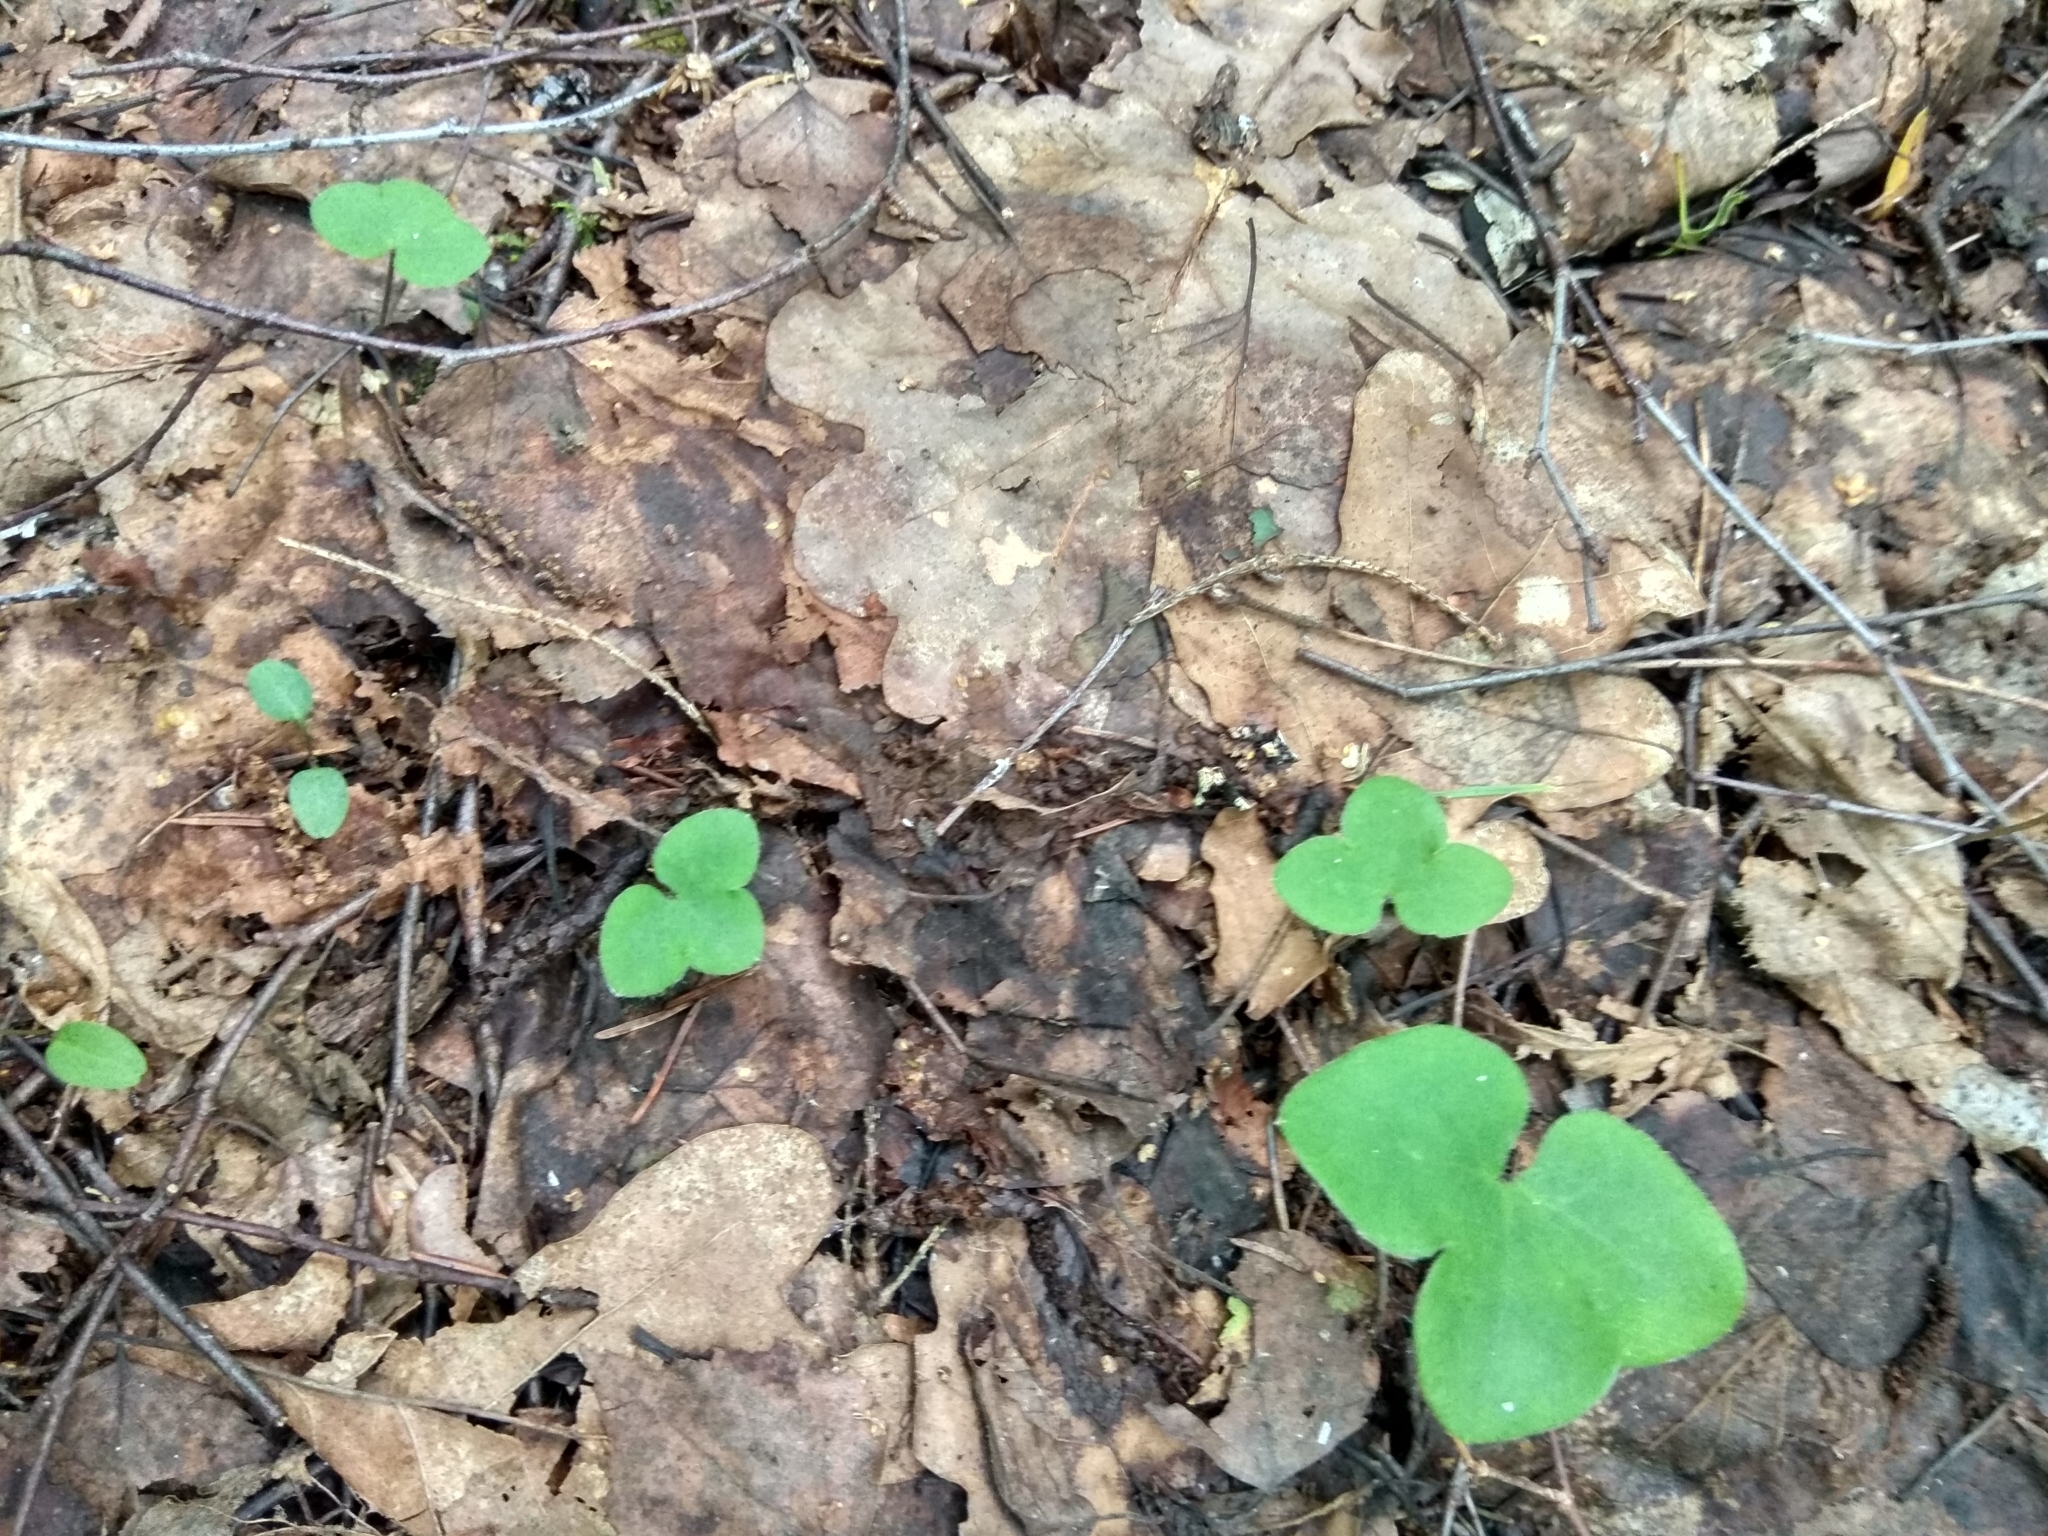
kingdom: Plantae
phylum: Tracheophyta
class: Magnoliopsida
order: Ranunculales
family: Ranunculaceae
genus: Hepatica
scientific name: Hepatica nobilis
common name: Liverleaf
